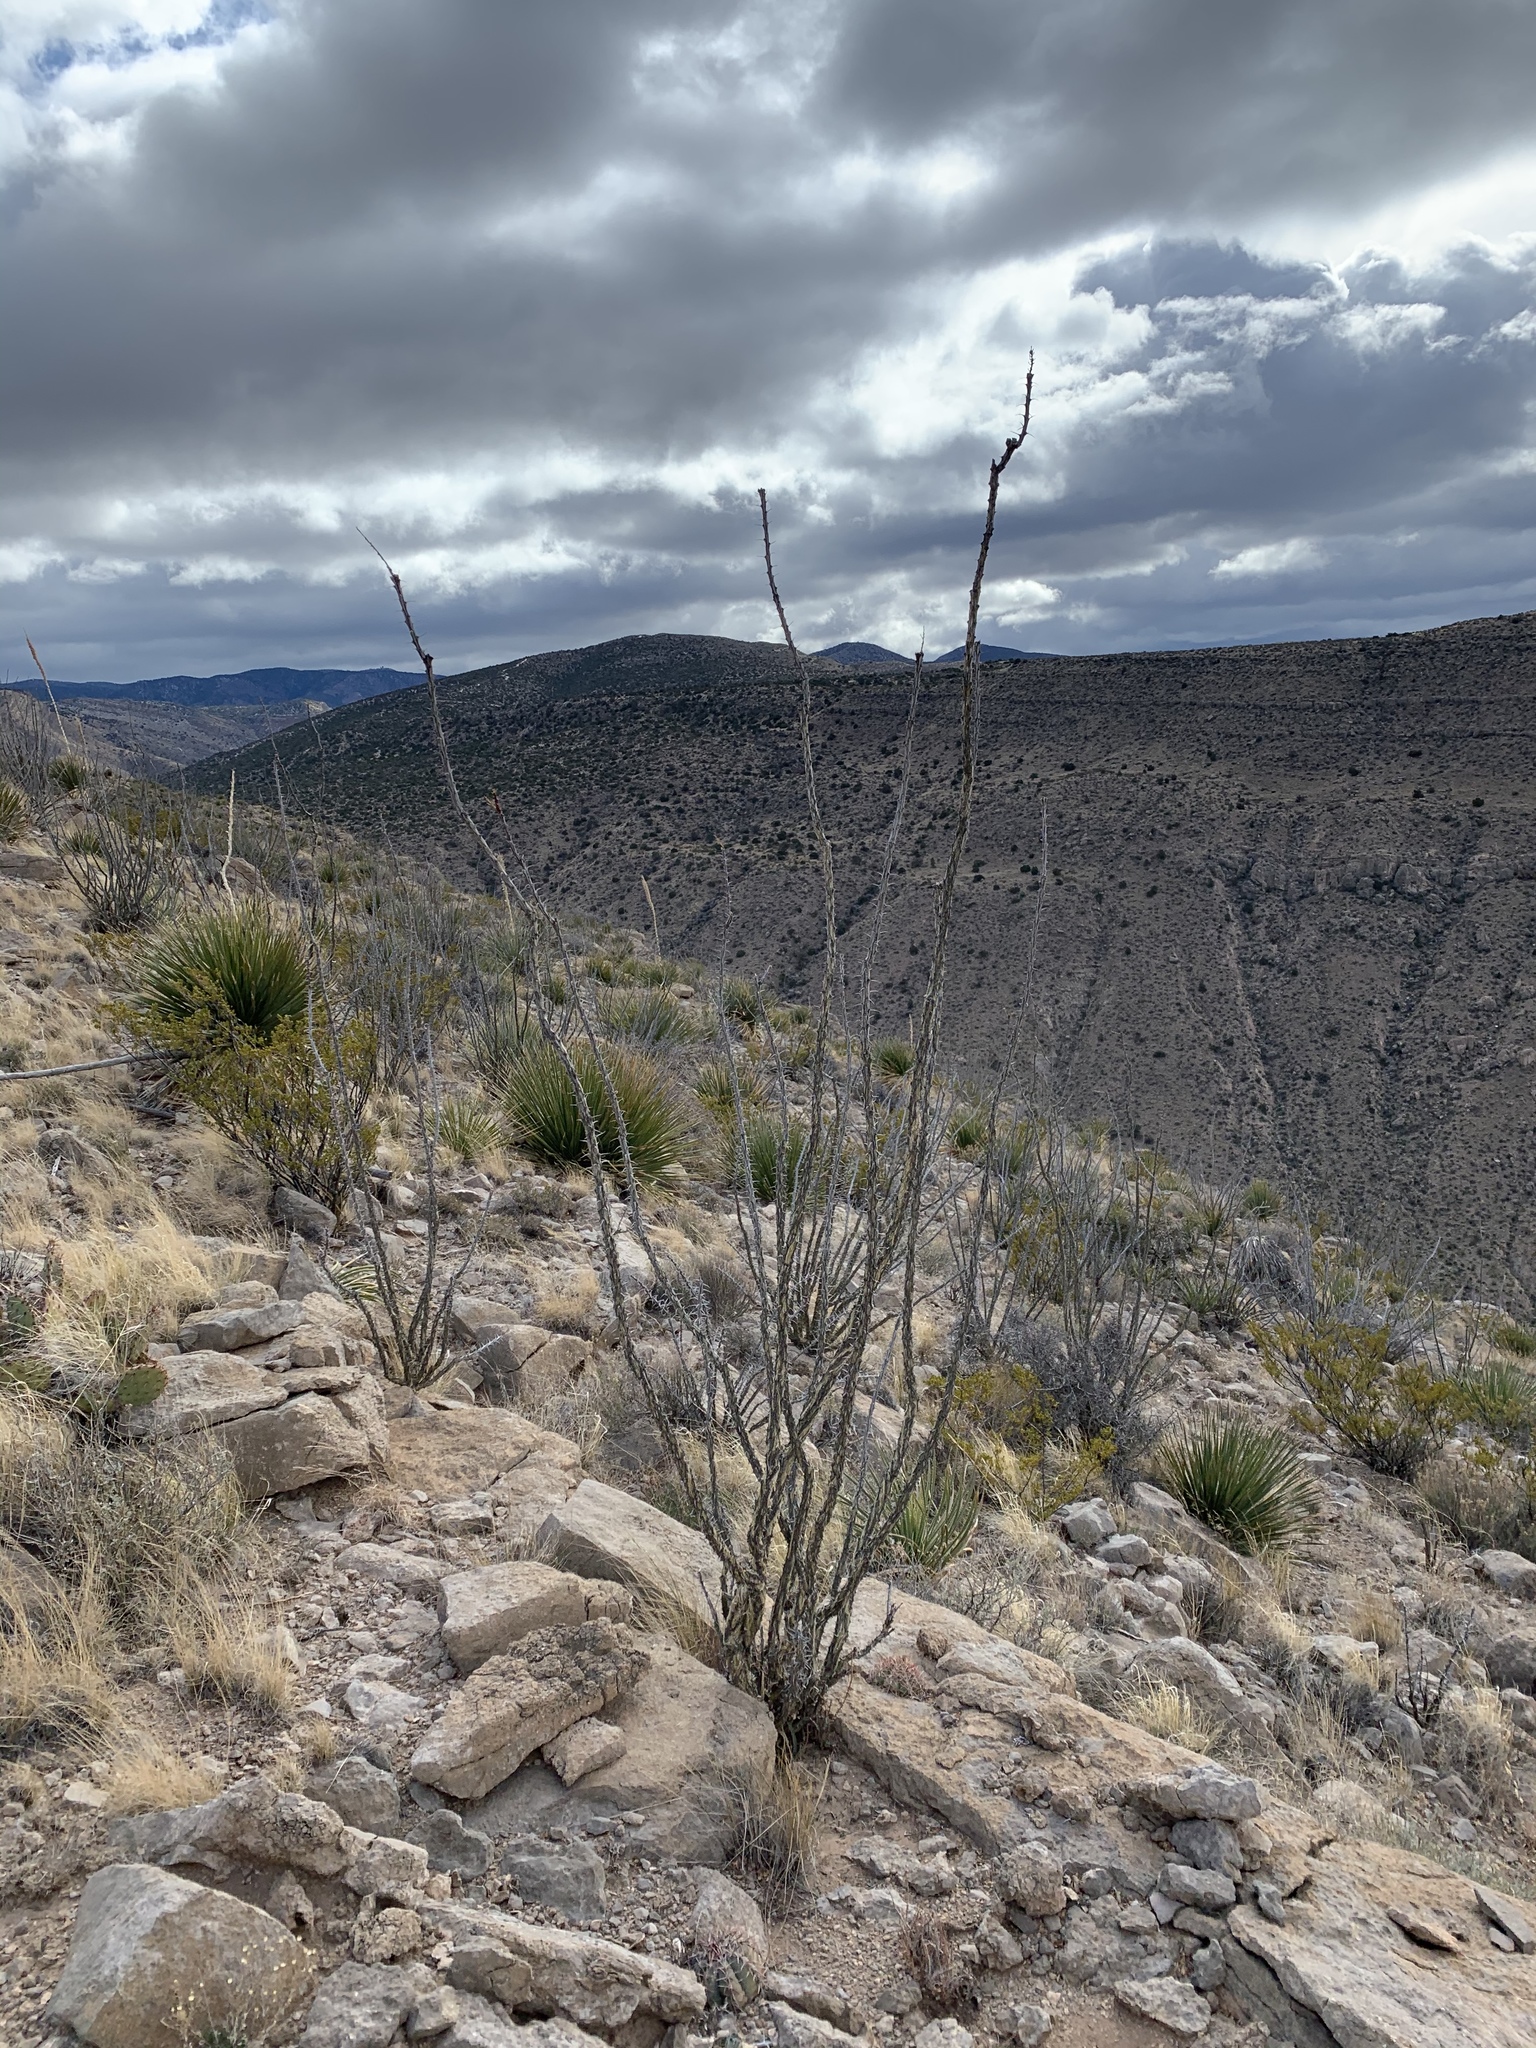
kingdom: Plantae
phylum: Tracheophyta
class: Magnoliopsida
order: Ericales
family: Fouquieriaceae
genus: Fouquieria
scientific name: Fouquieria splendens
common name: Vine-cactus
